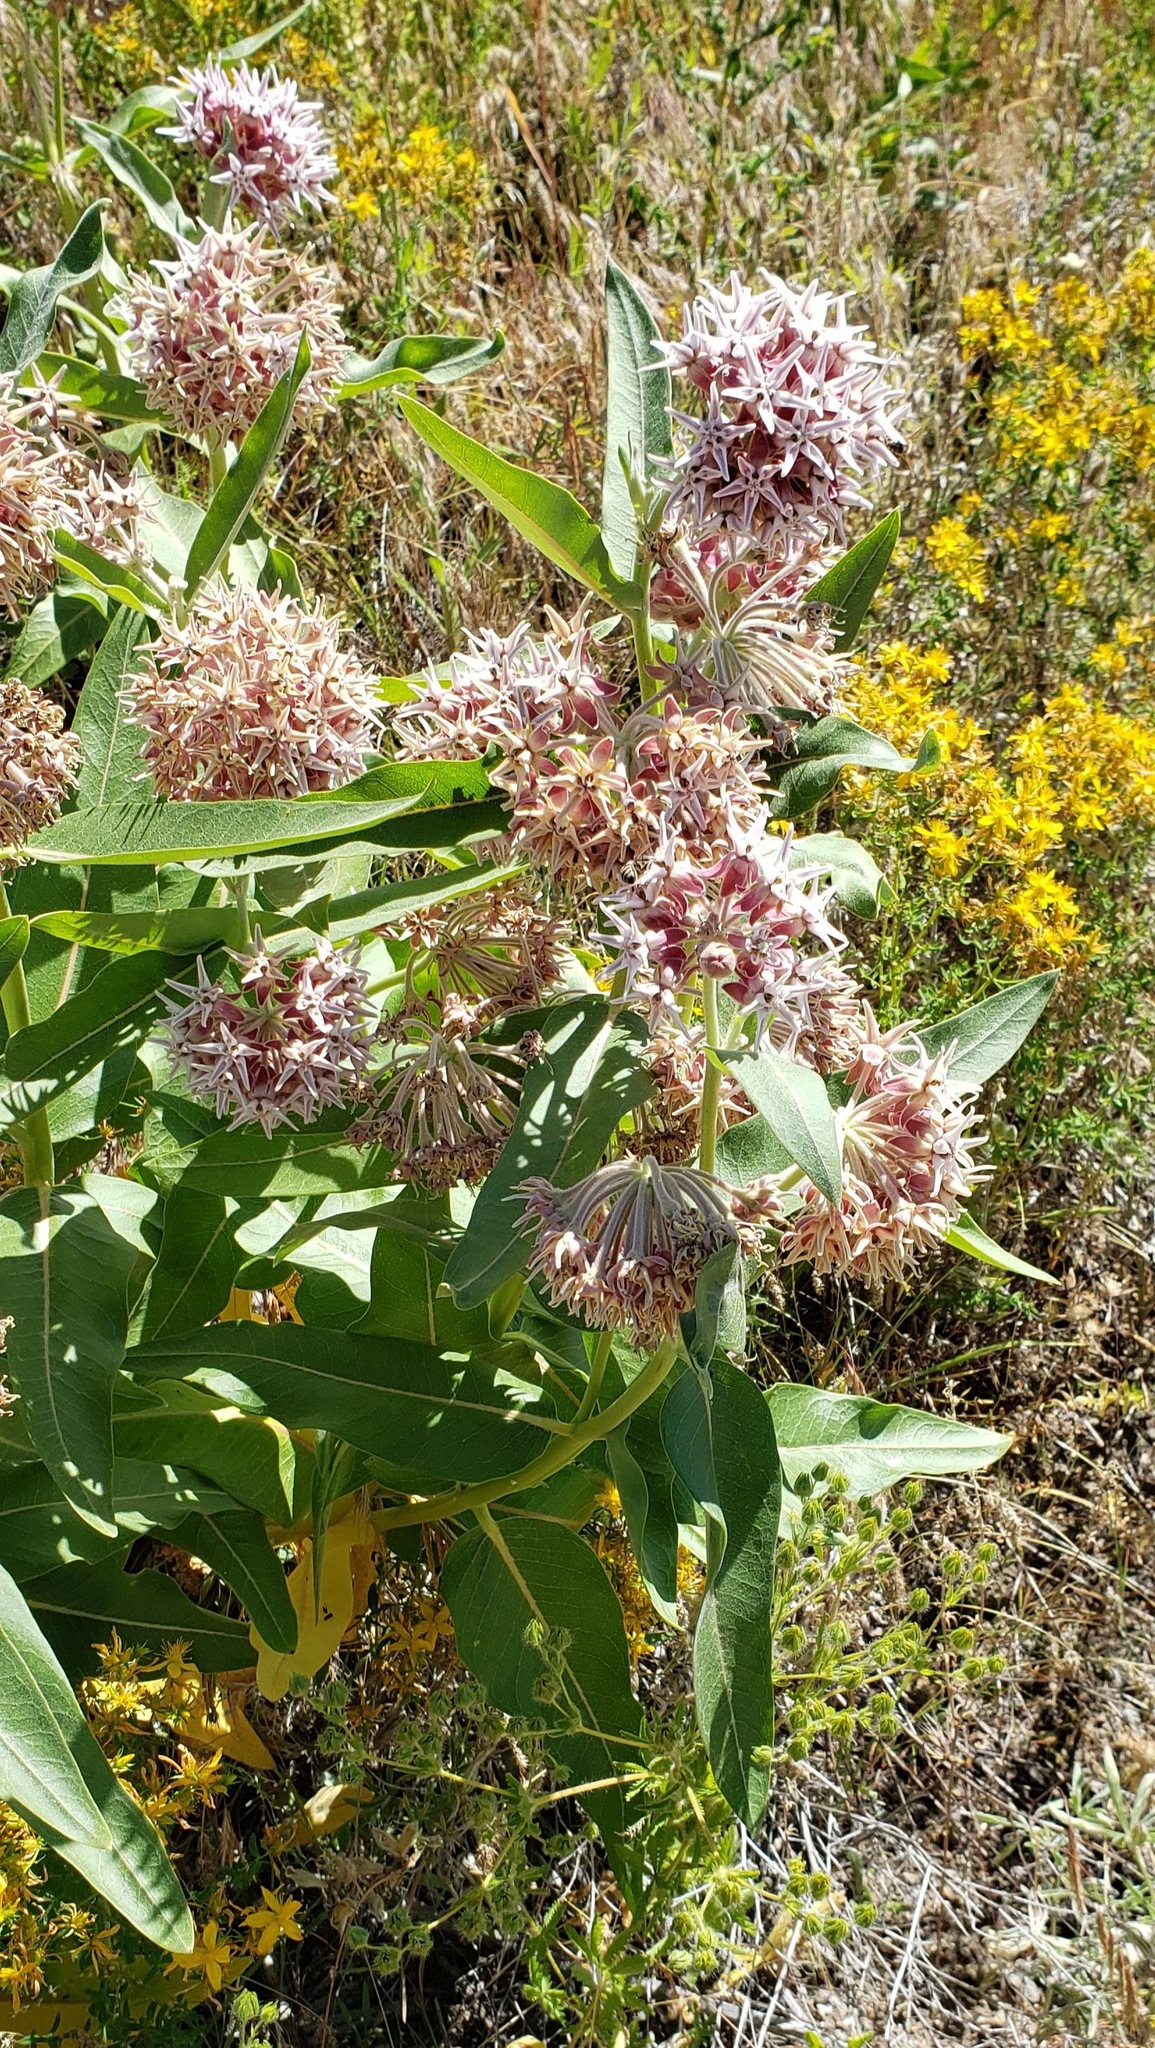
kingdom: Plantae
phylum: Tracheophyta
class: Magnoliopsida
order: Gentianales
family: Apocynaceae
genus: Asclepias
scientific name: Asclepias speciosa
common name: Showy milkweed
